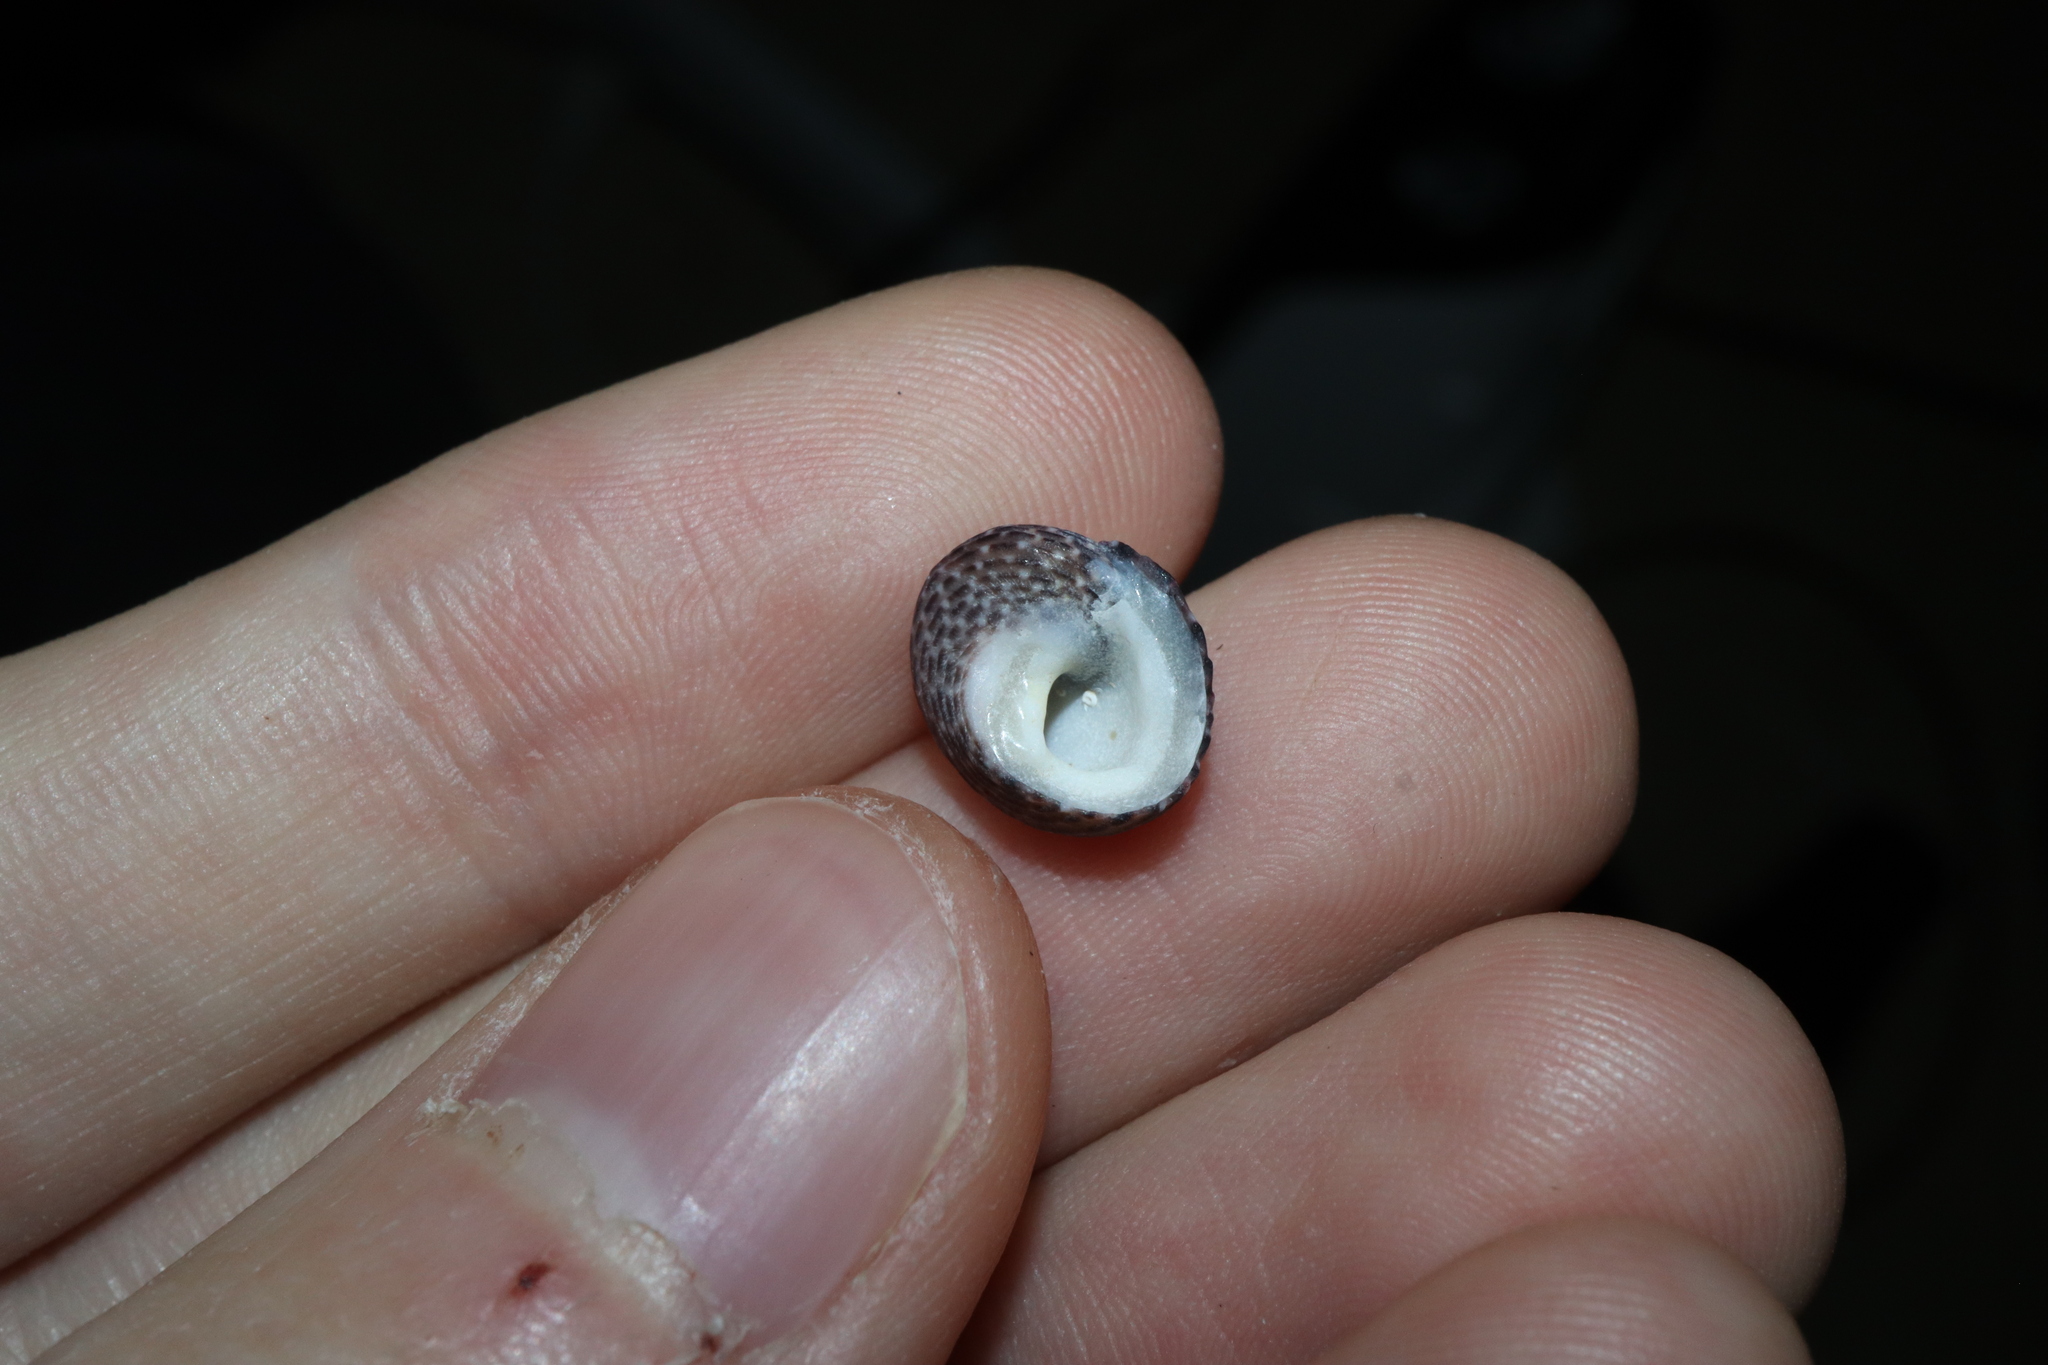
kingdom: Animalia
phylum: Mollusca
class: Gastropoda
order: Trochida
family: Trochidae
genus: Diloma
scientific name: Diloma concameratum
